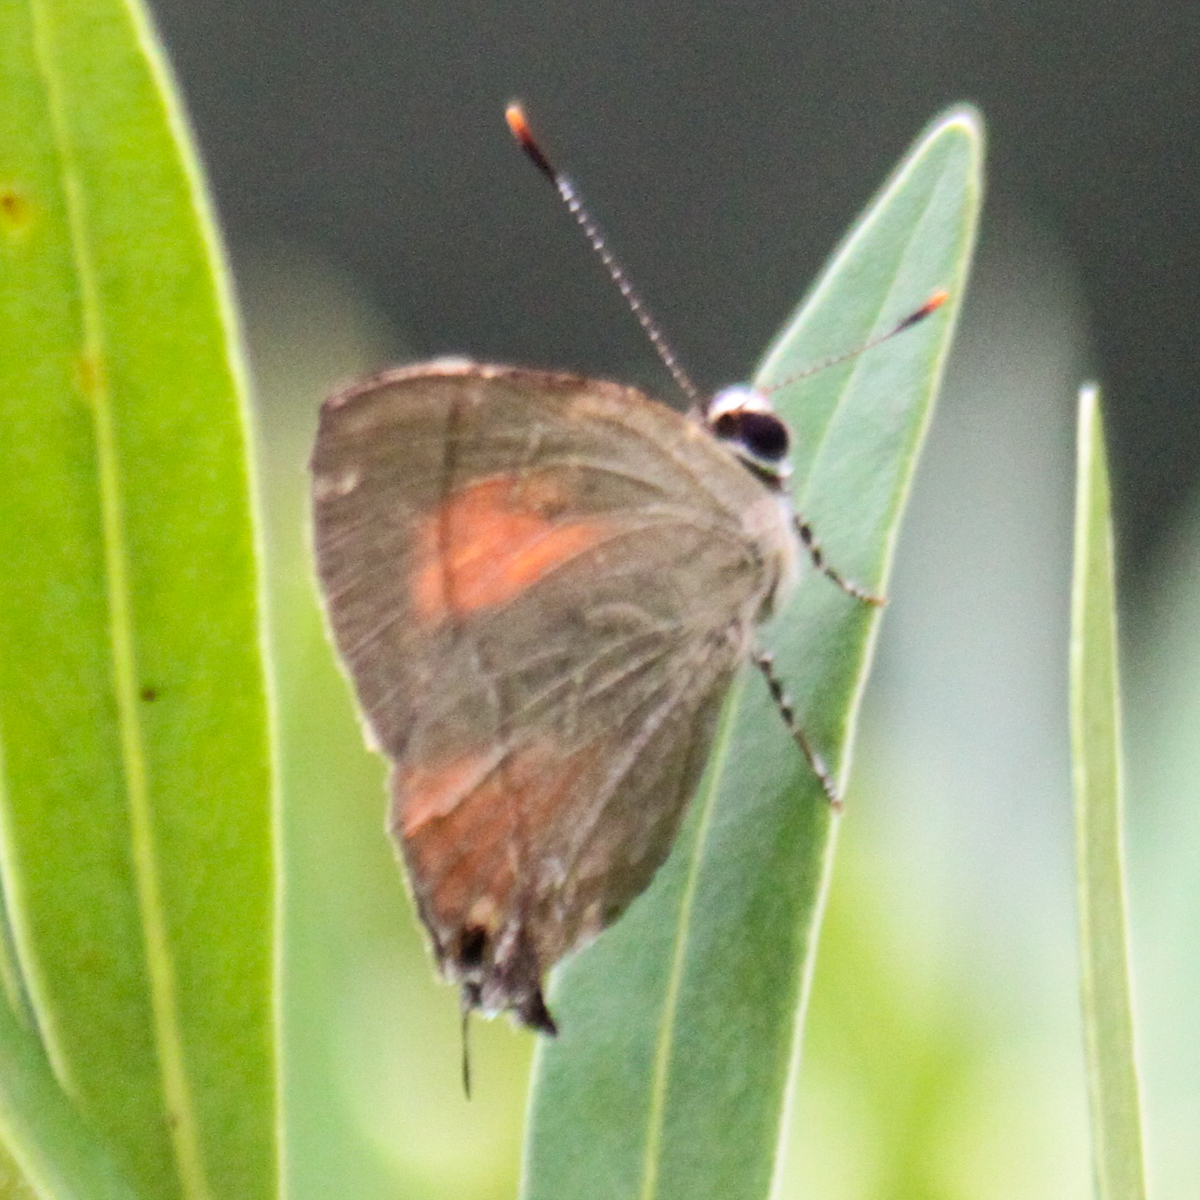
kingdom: Animalia
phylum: Arthropoda
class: Insecta
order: Lepidoptera
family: Lycaenidae
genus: Rapala
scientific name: Rapala dieneces
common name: Scarlet flash
